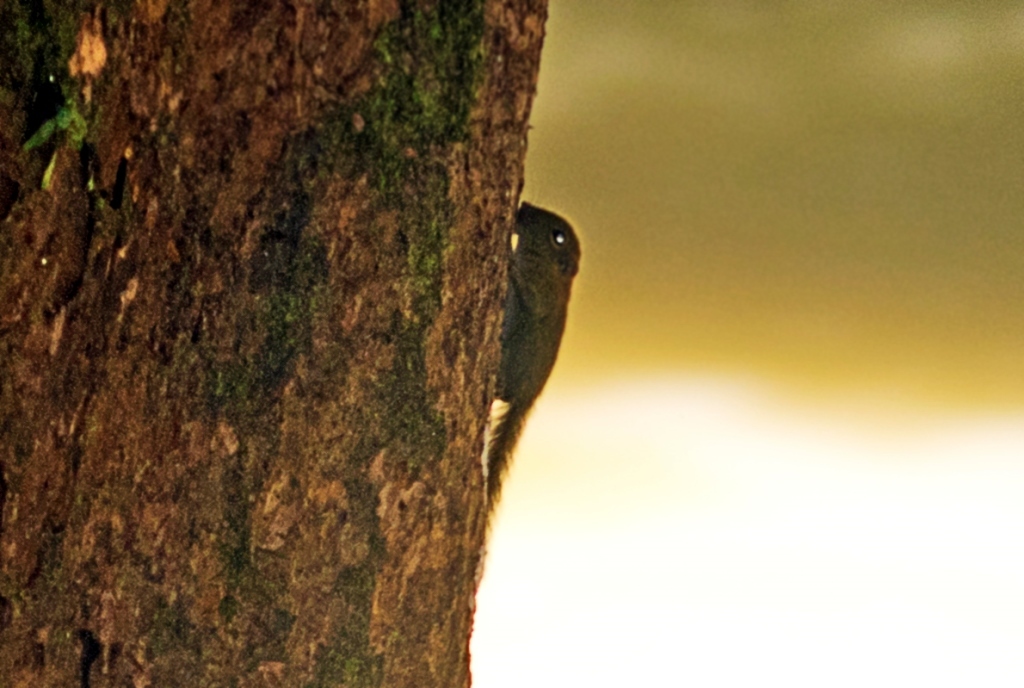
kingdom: Animalia
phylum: Chordata
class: Mammalia
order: Rodentia
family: Sciuridae
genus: Exilisciurus
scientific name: Exilisciurus exilis
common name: Least pygmy squirrel
